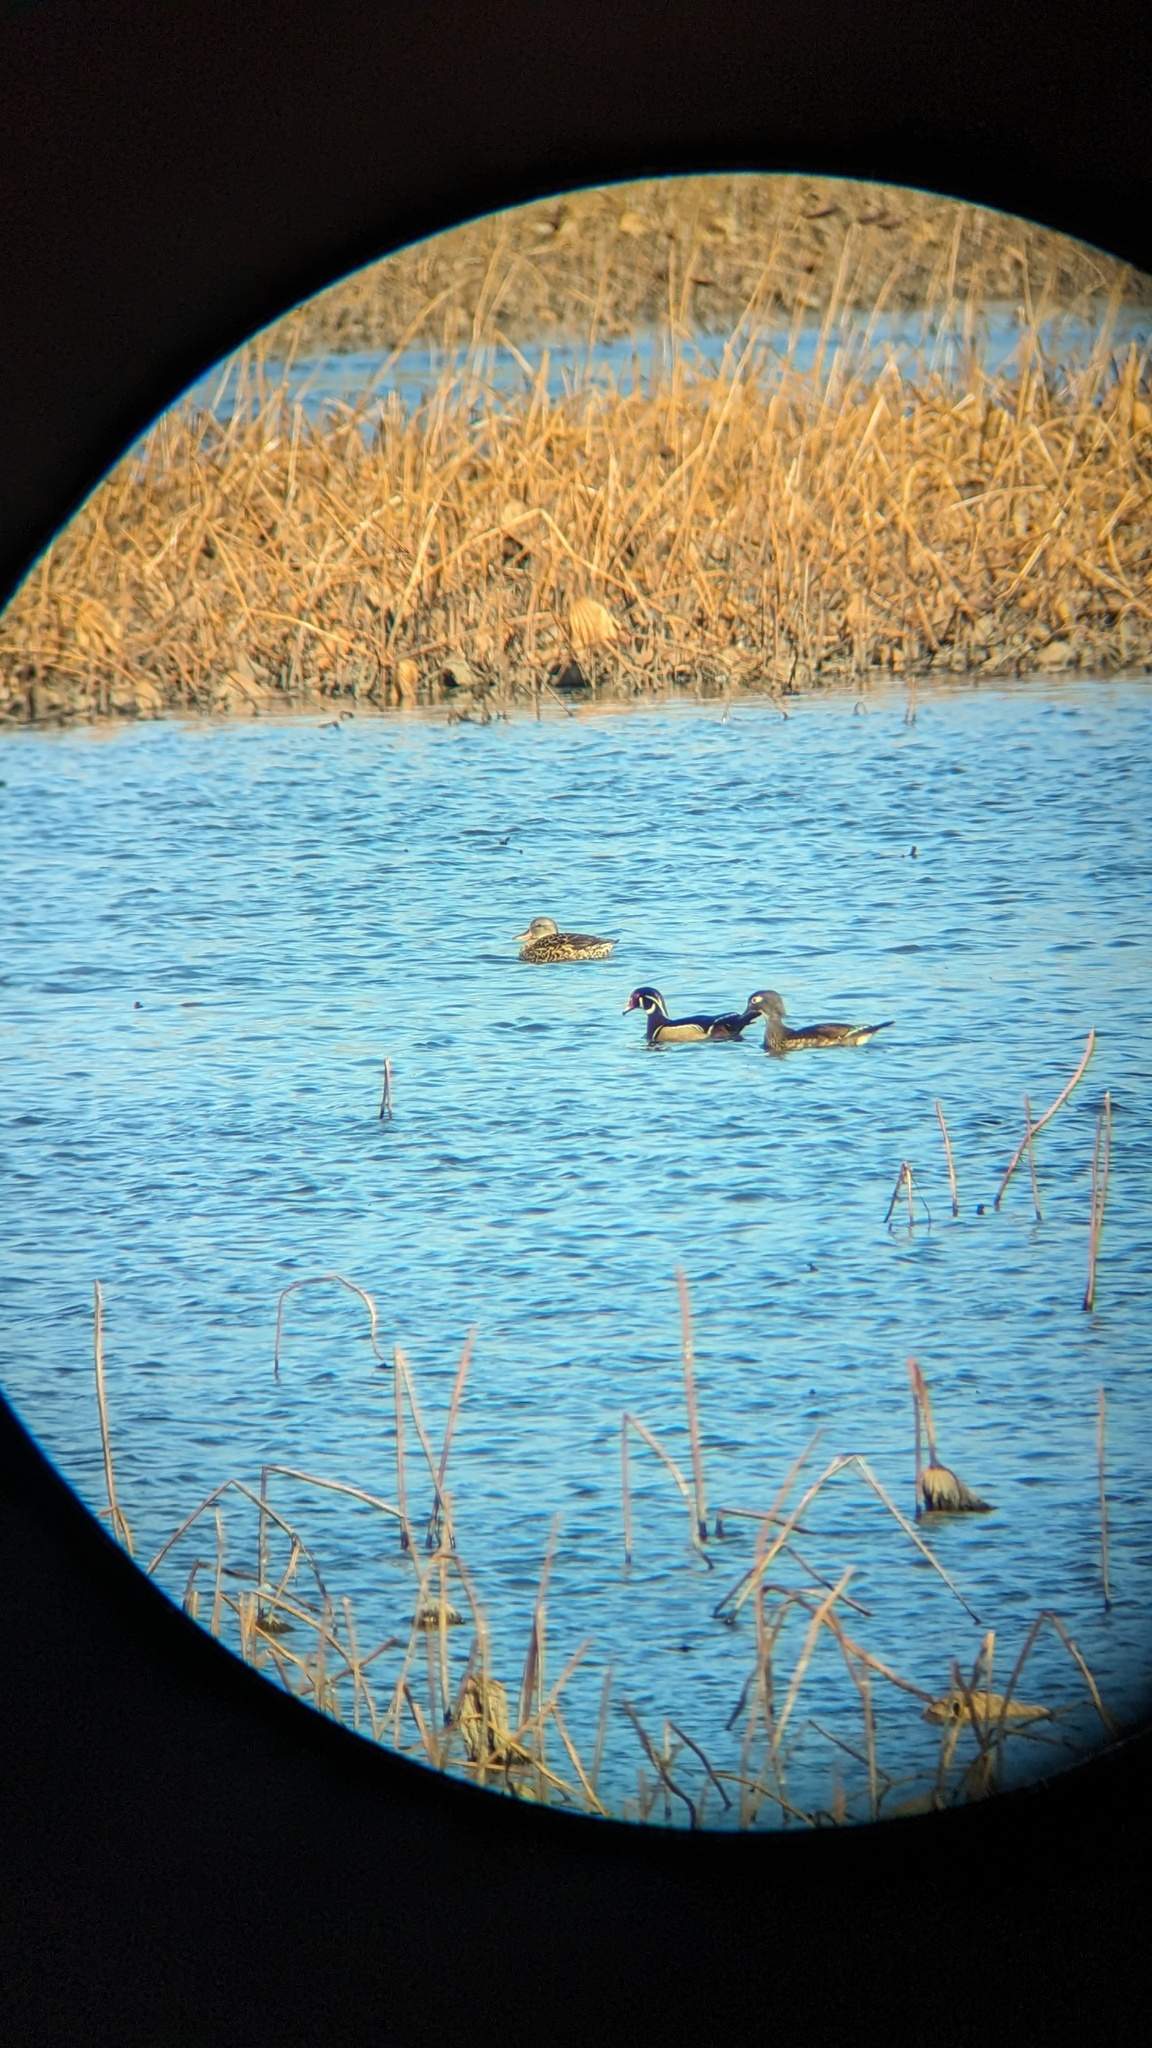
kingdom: Animalia
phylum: Chordata
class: Aves
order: Anseriformes
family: Anatidae
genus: Aix
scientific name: Aix sponsa
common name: Wood duck
